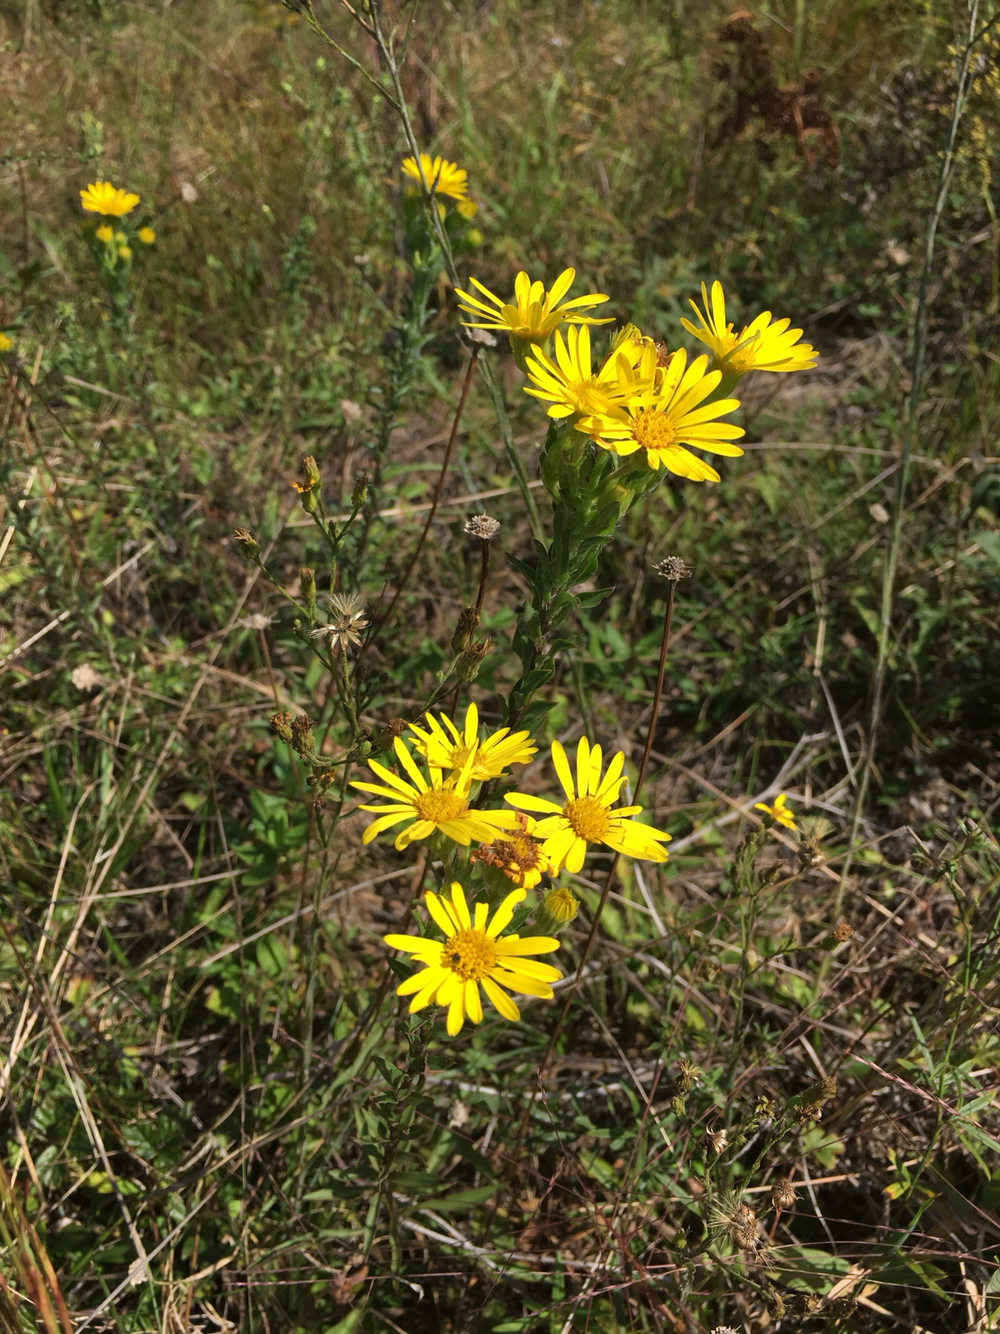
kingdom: Plantae
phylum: Tracheophyta
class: Magnoliopsida
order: Asterales
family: Asteraceae
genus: Chrysopsis
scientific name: Chrysopsis mariana
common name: Maryland golden-aster
